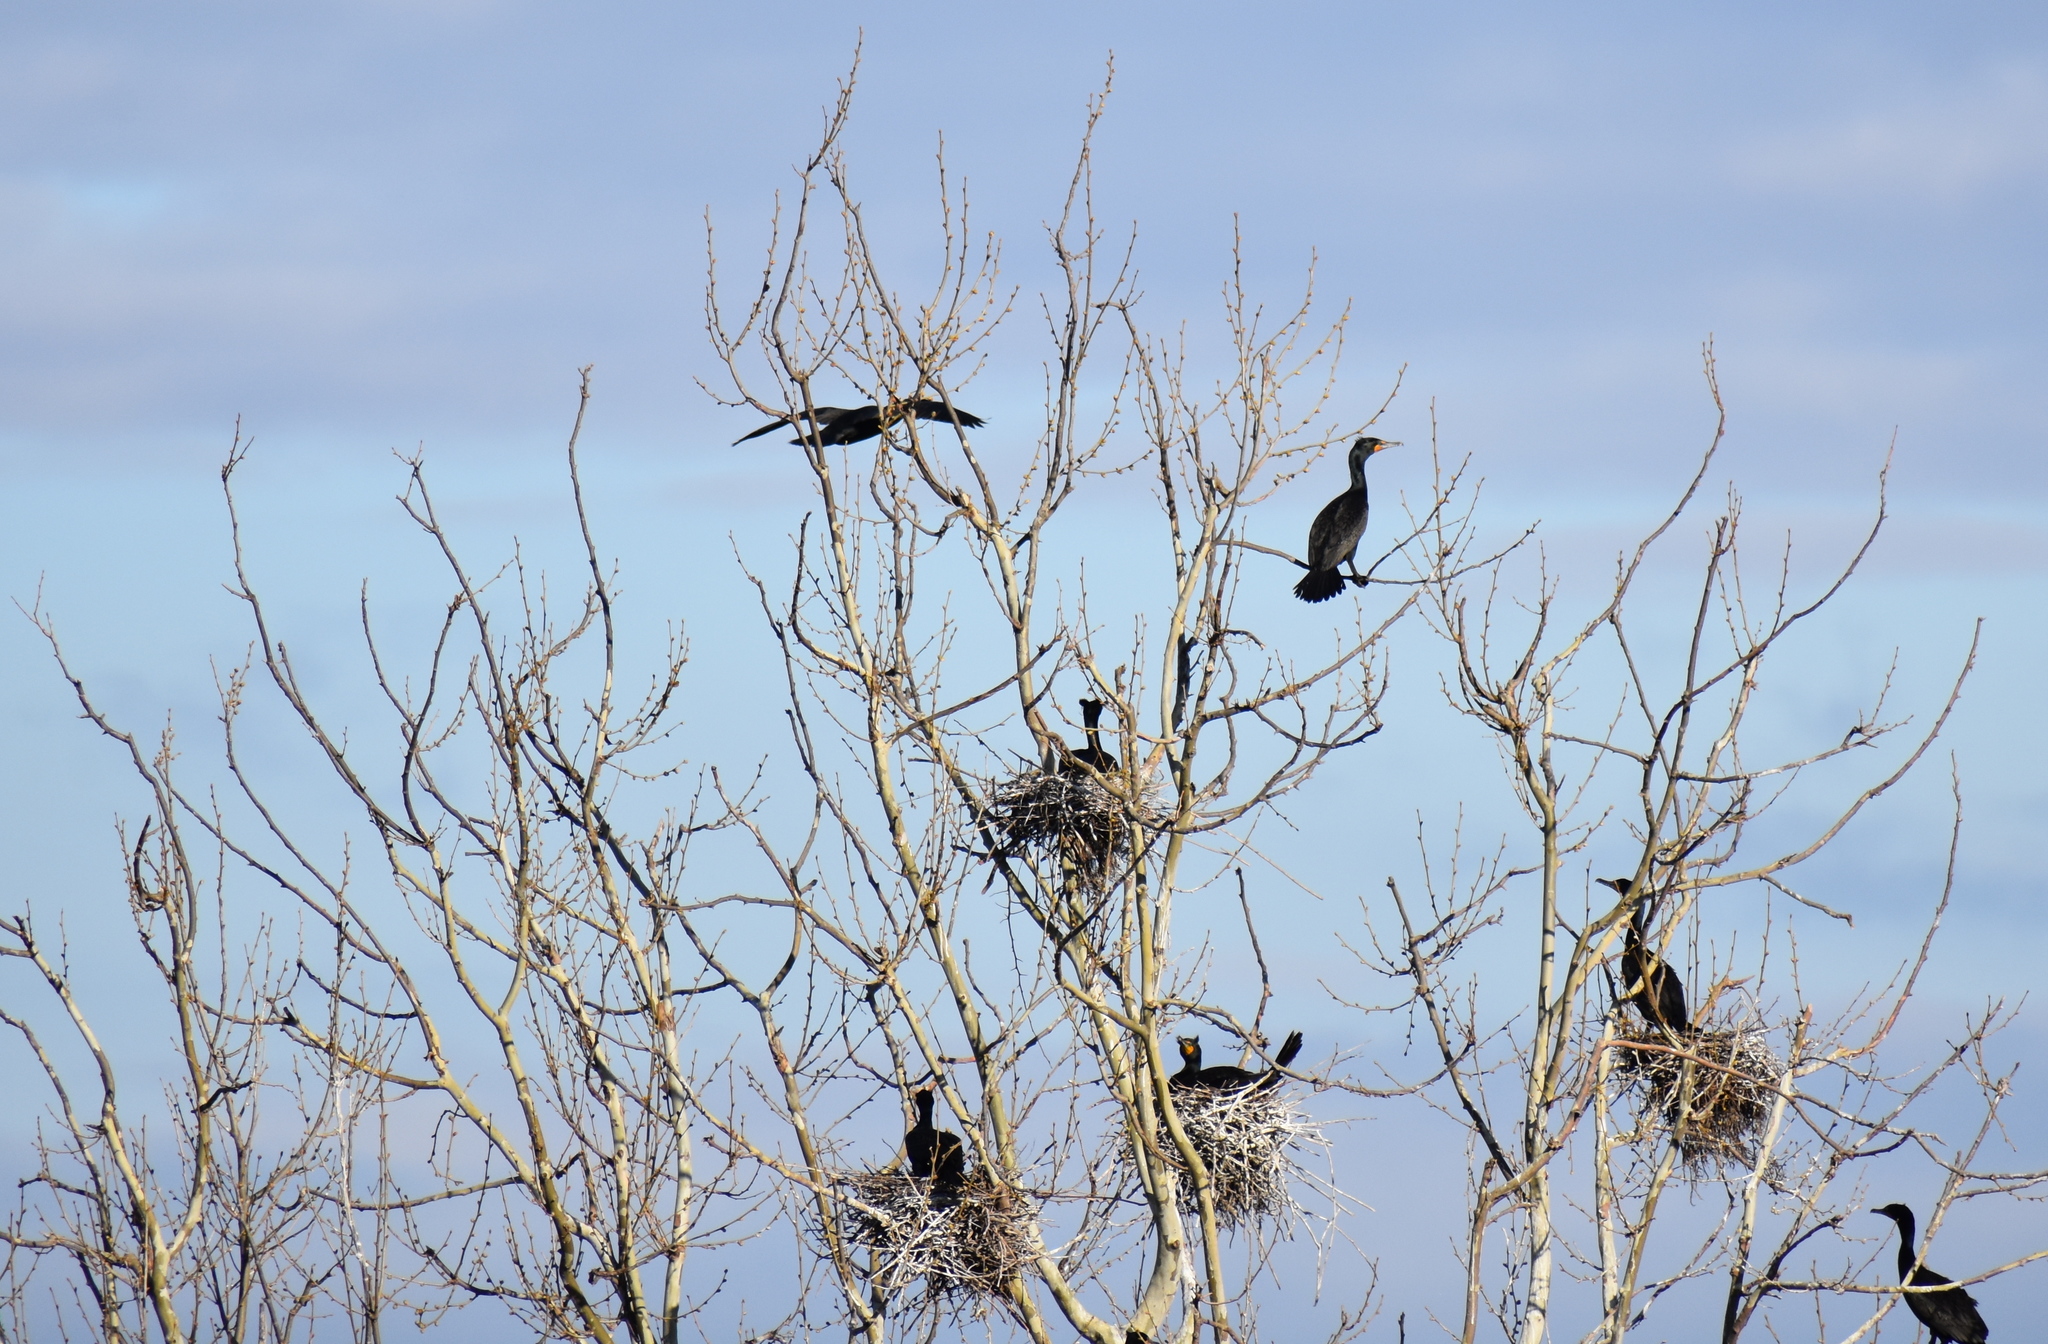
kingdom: Animalia
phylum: Chordata
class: Aves
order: Suliformes
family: Phalacrocoracidae
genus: Phalacrocorax
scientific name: Phalacrocorax auritus
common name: Double-crested cormorant
